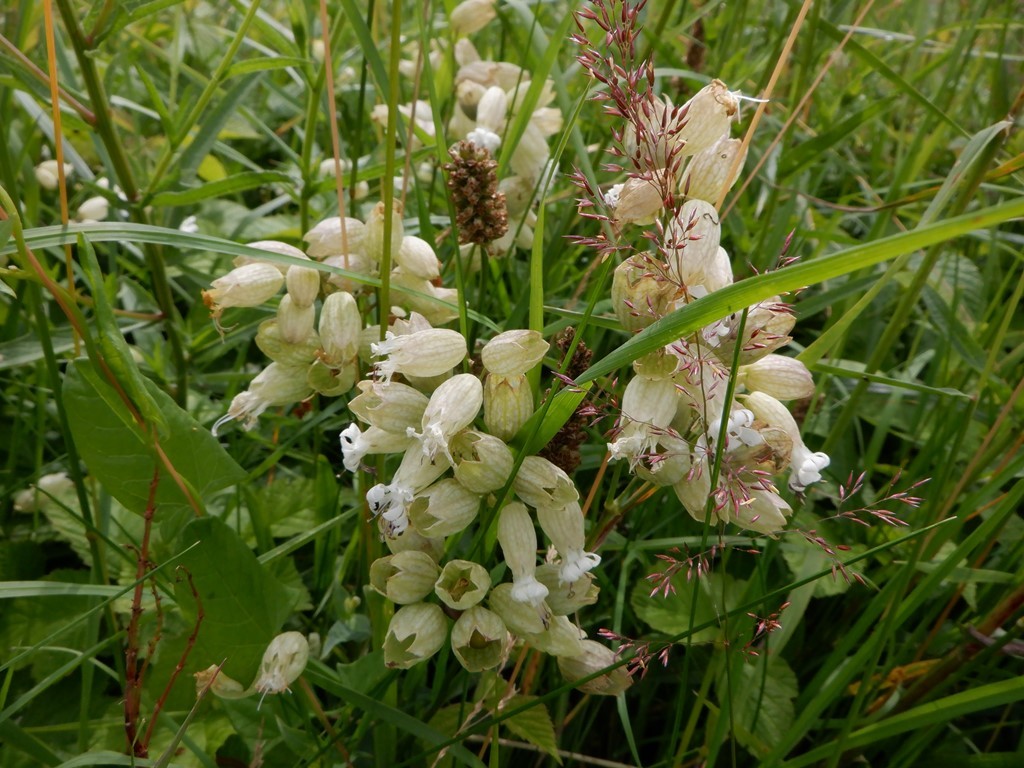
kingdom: Plantae
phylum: Tracheophyta
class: Magnoliopsida
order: Caryophyllales
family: Caryophyllaceae
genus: Silene
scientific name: Silene vulgaris
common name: Bladder campion
